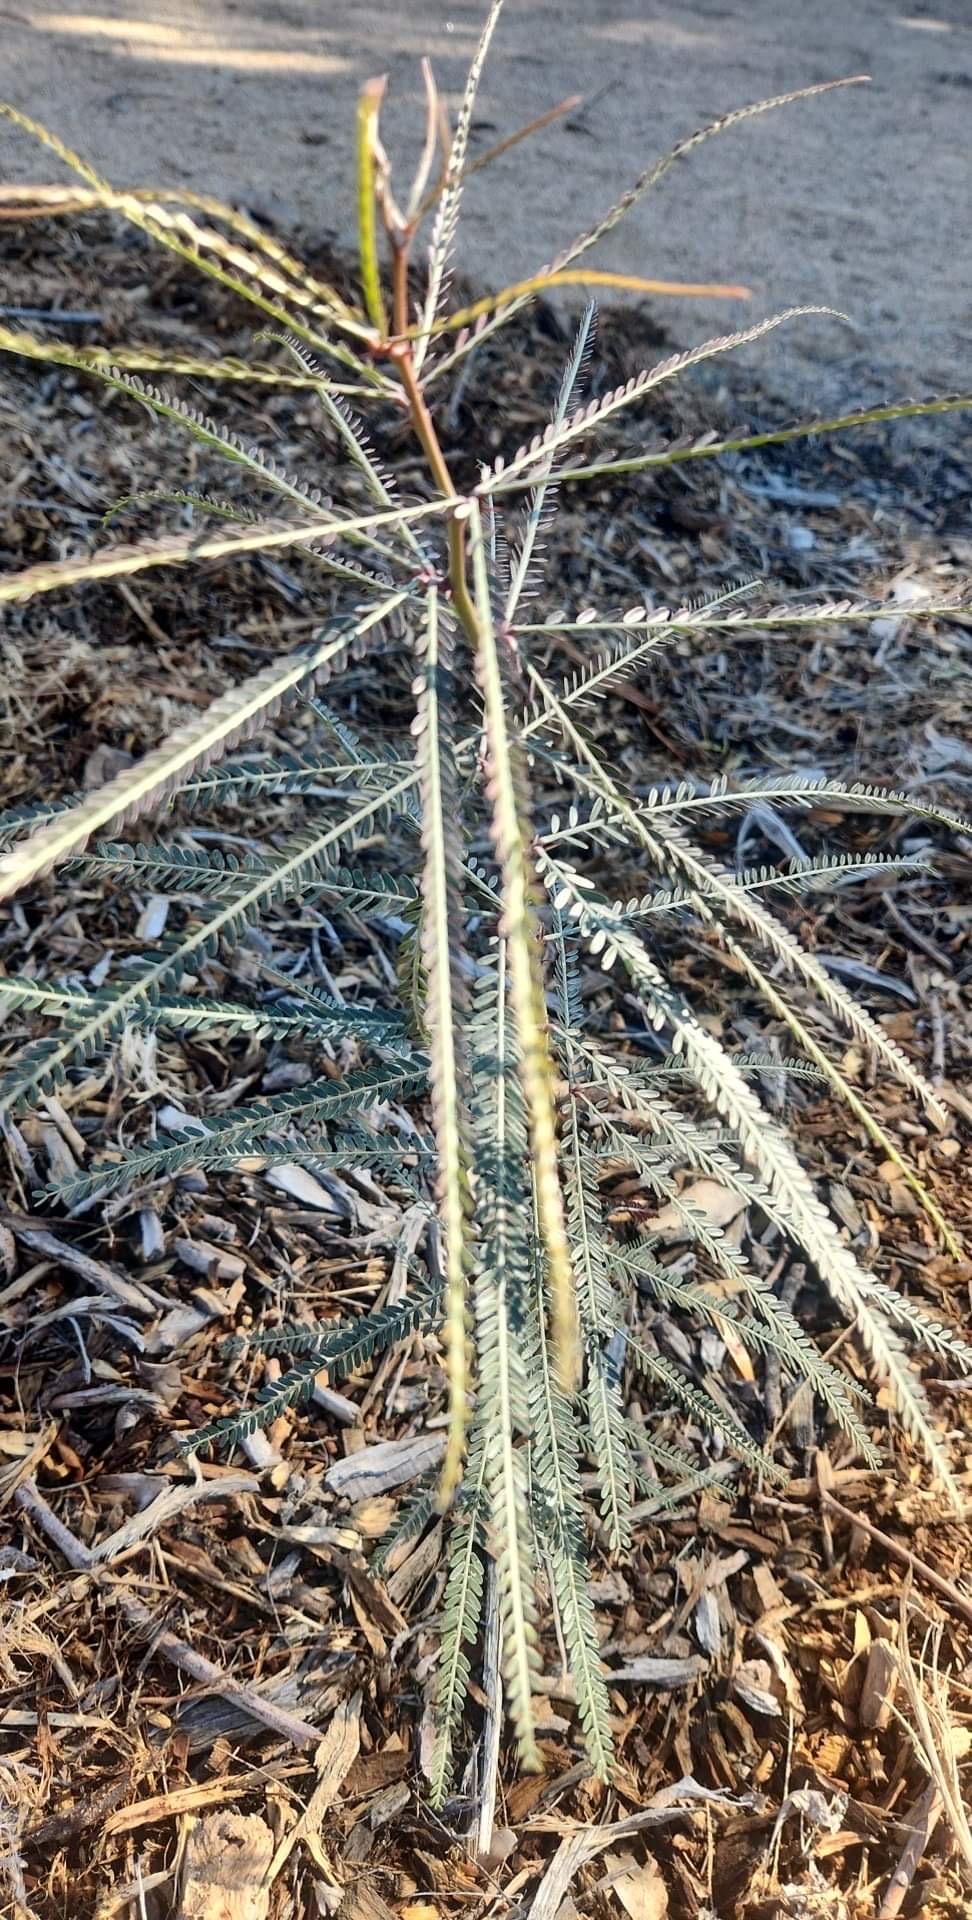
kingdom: Plantae
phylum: Tracheophyta
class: Magnoliopsida
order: Fabales
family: Fabaceae
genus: Parkinsonia
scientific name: Parkinsonia aculeata
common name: Jerusalem thorn
